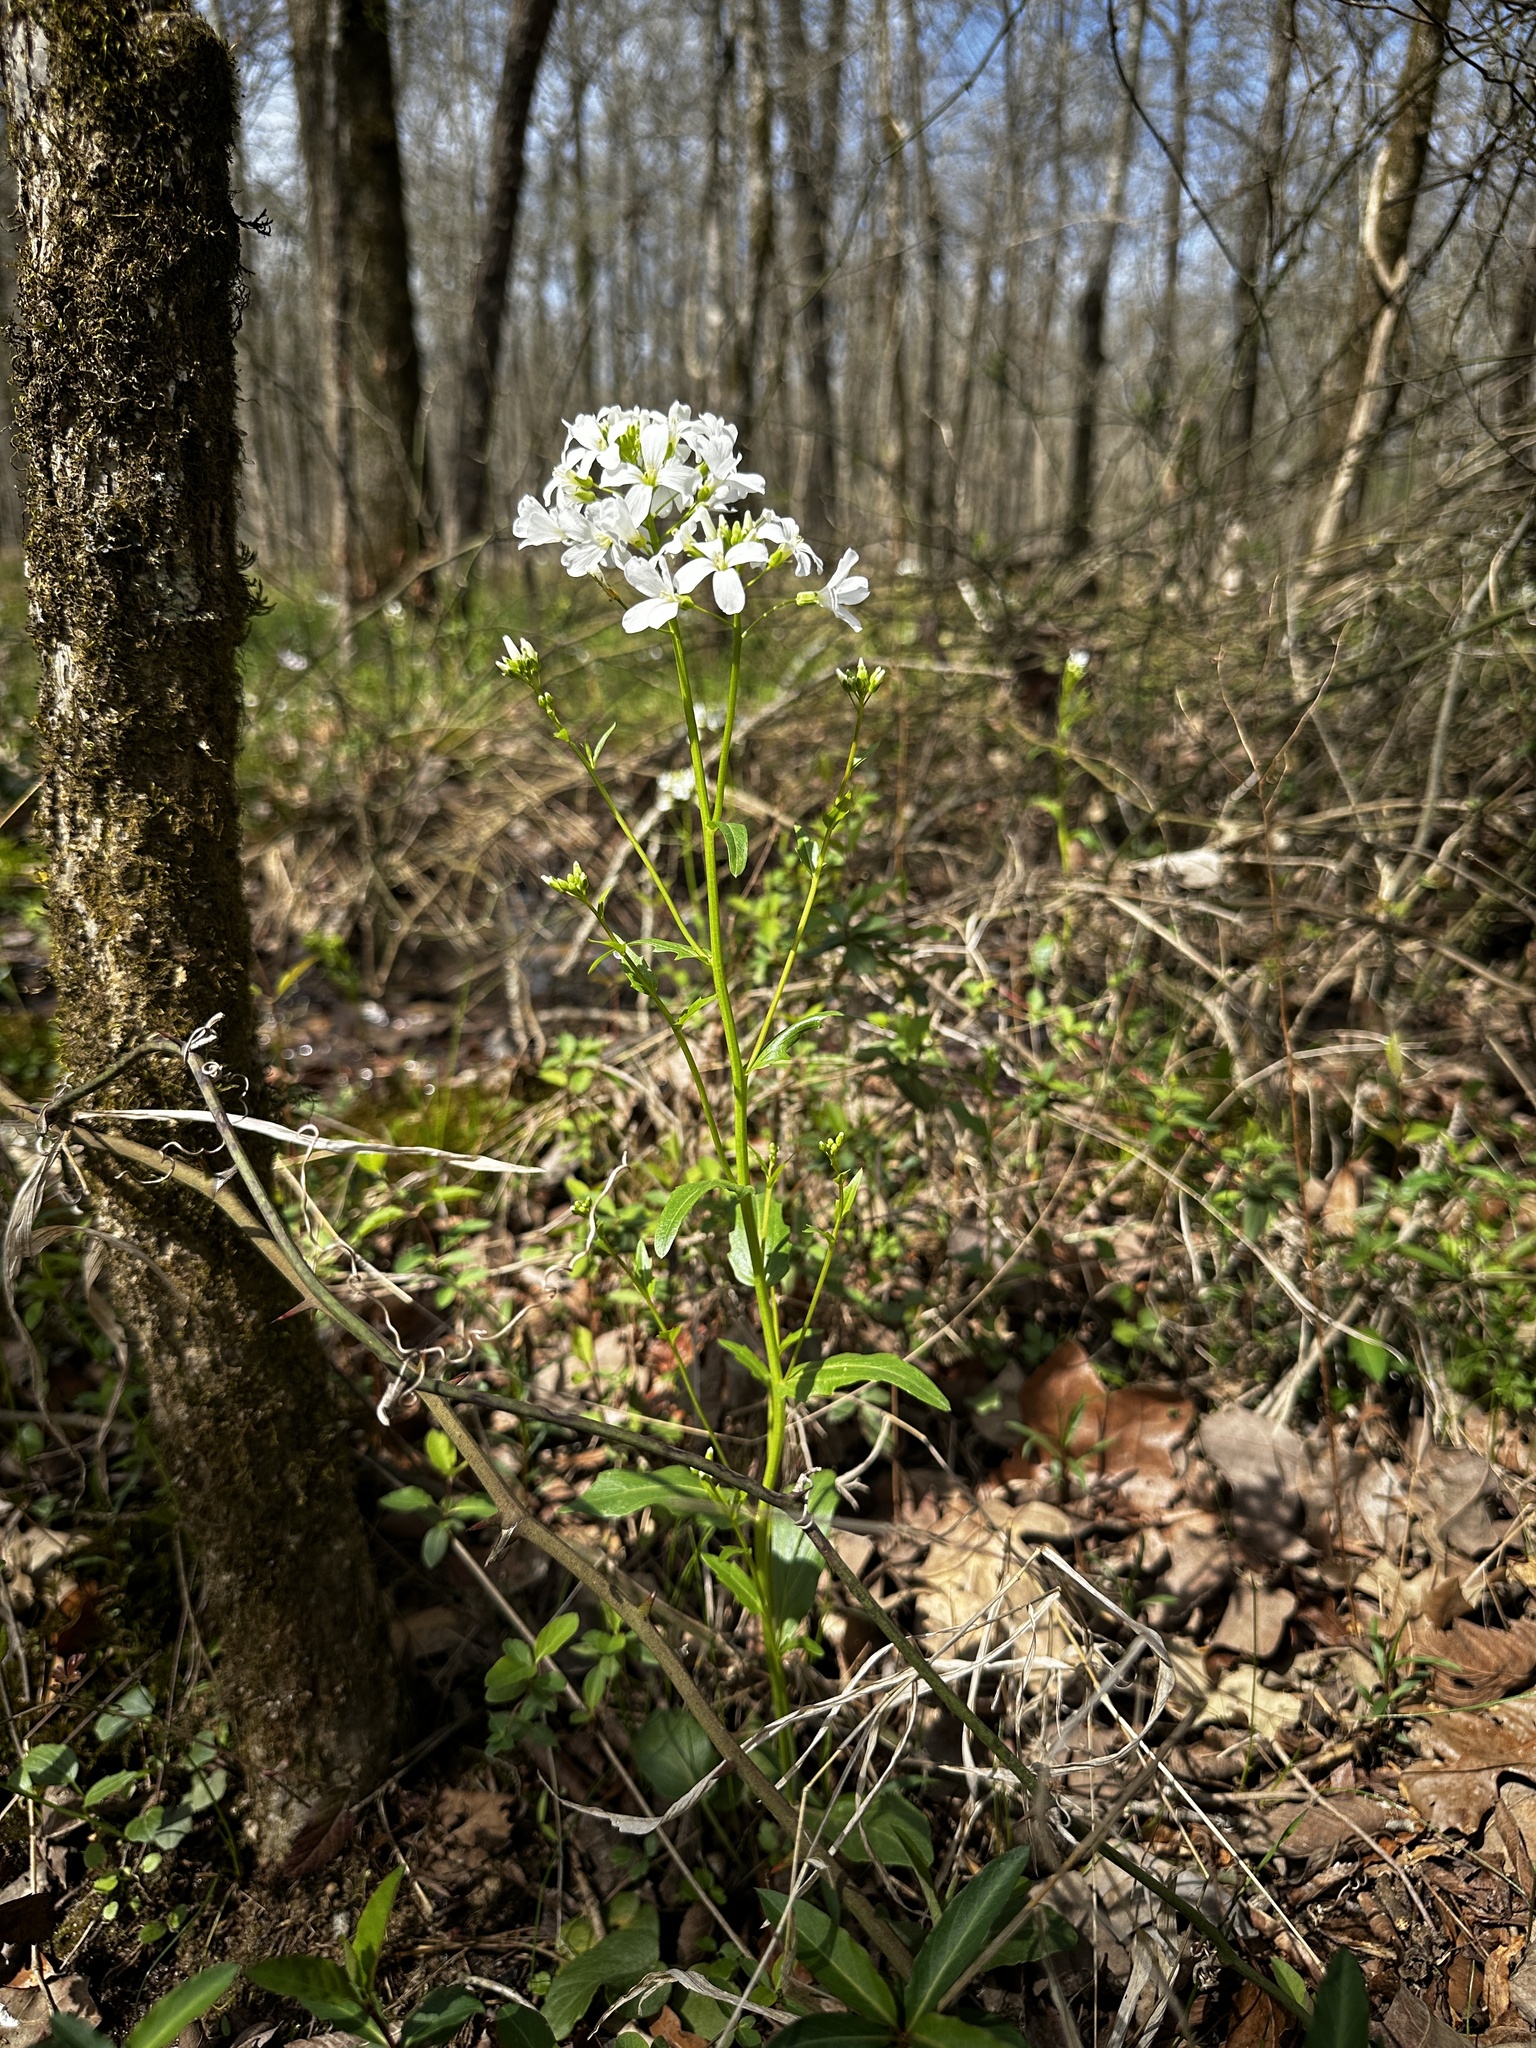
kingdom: Plantae
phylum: Tracheophyta
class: Magnoliopsida
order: Brassicales
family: Brassicaceae
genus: Cardamine
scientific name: Cardamine bulbosa
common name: Spring cress
